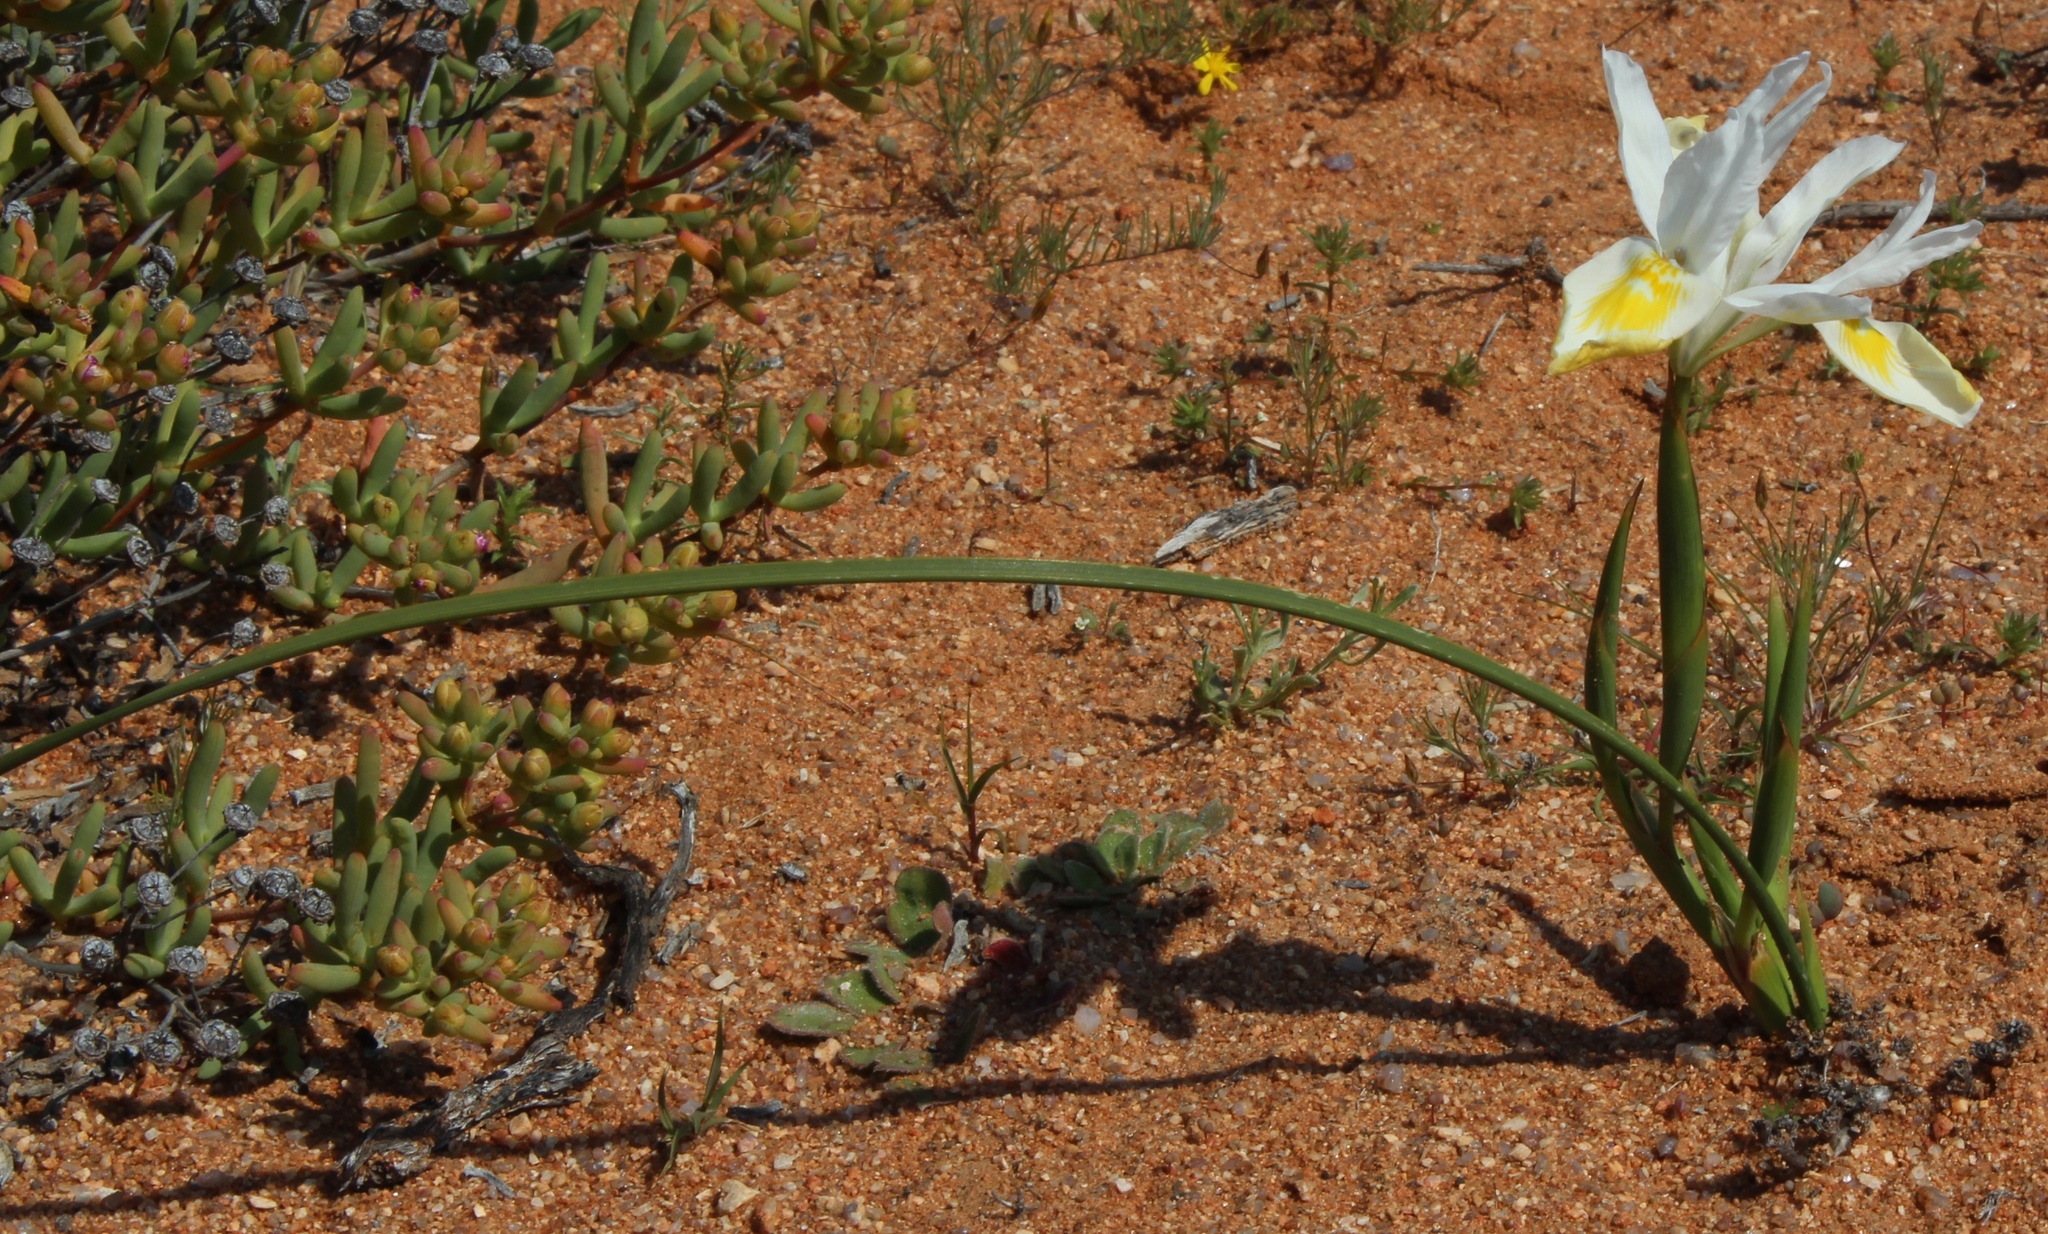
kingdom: Plantae
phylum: Tracheophyta
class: Liliopsida
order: Asparagales
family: Iridaceae
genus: Moraea
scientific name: Moraea fugax
